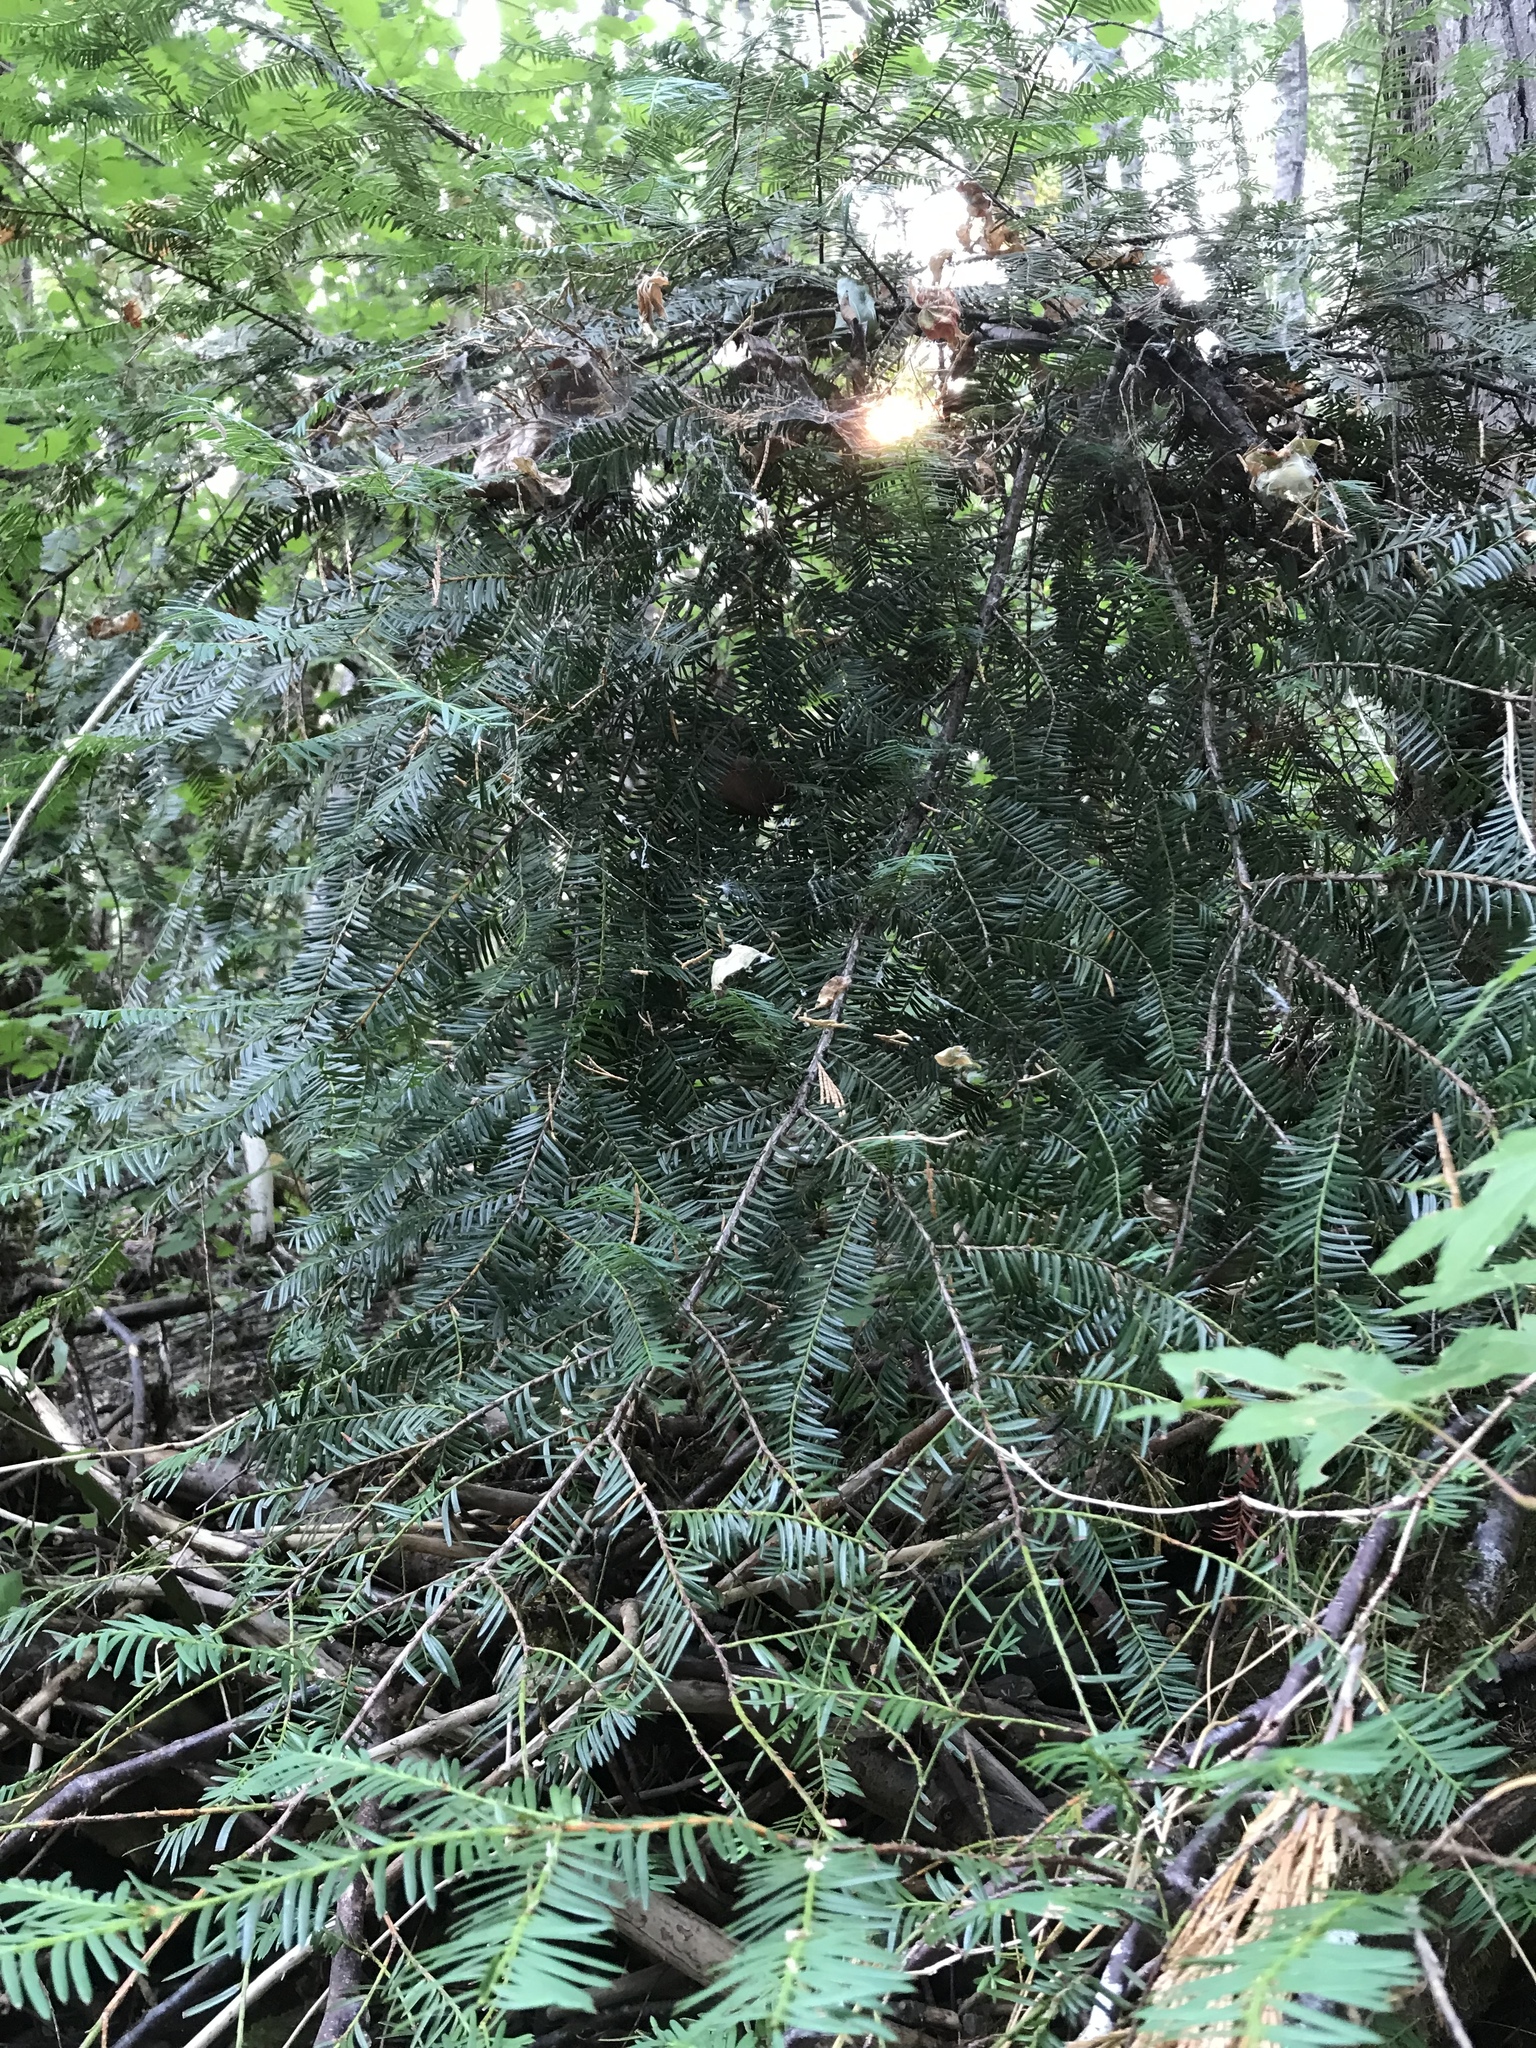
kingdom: Plantae
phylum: Tracheophyta
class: Pinopsida
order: Pinales
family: Taxaceae
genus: Taxus
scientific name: Taxus brevifolia
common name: Pacific yew
